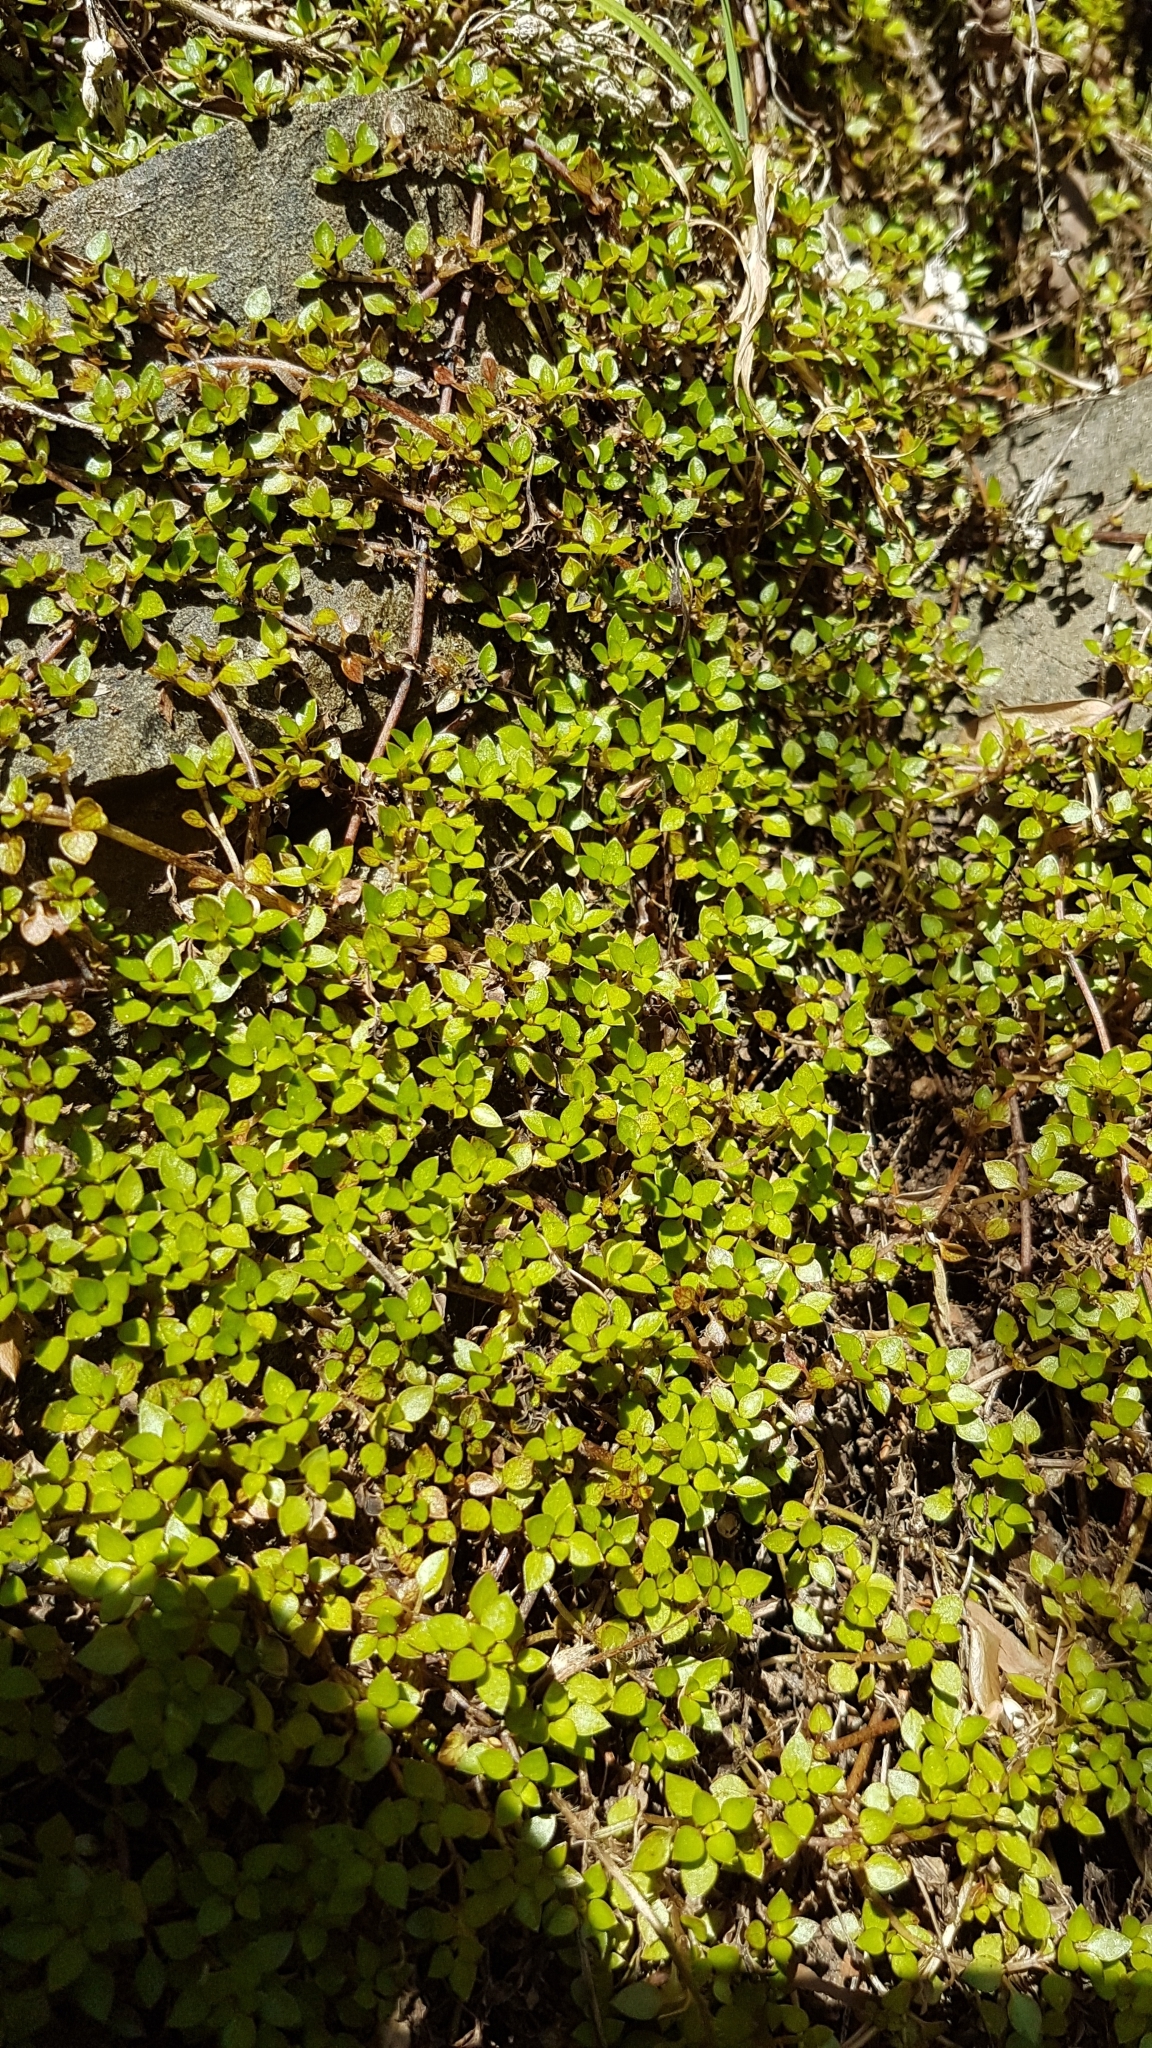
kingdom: Plantae
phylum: Tracheophyta
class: Magnoliopsida
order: Gentianales
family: Rubiaceae
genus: Nertera
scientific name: Nertera granadensis
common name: Beadplant
